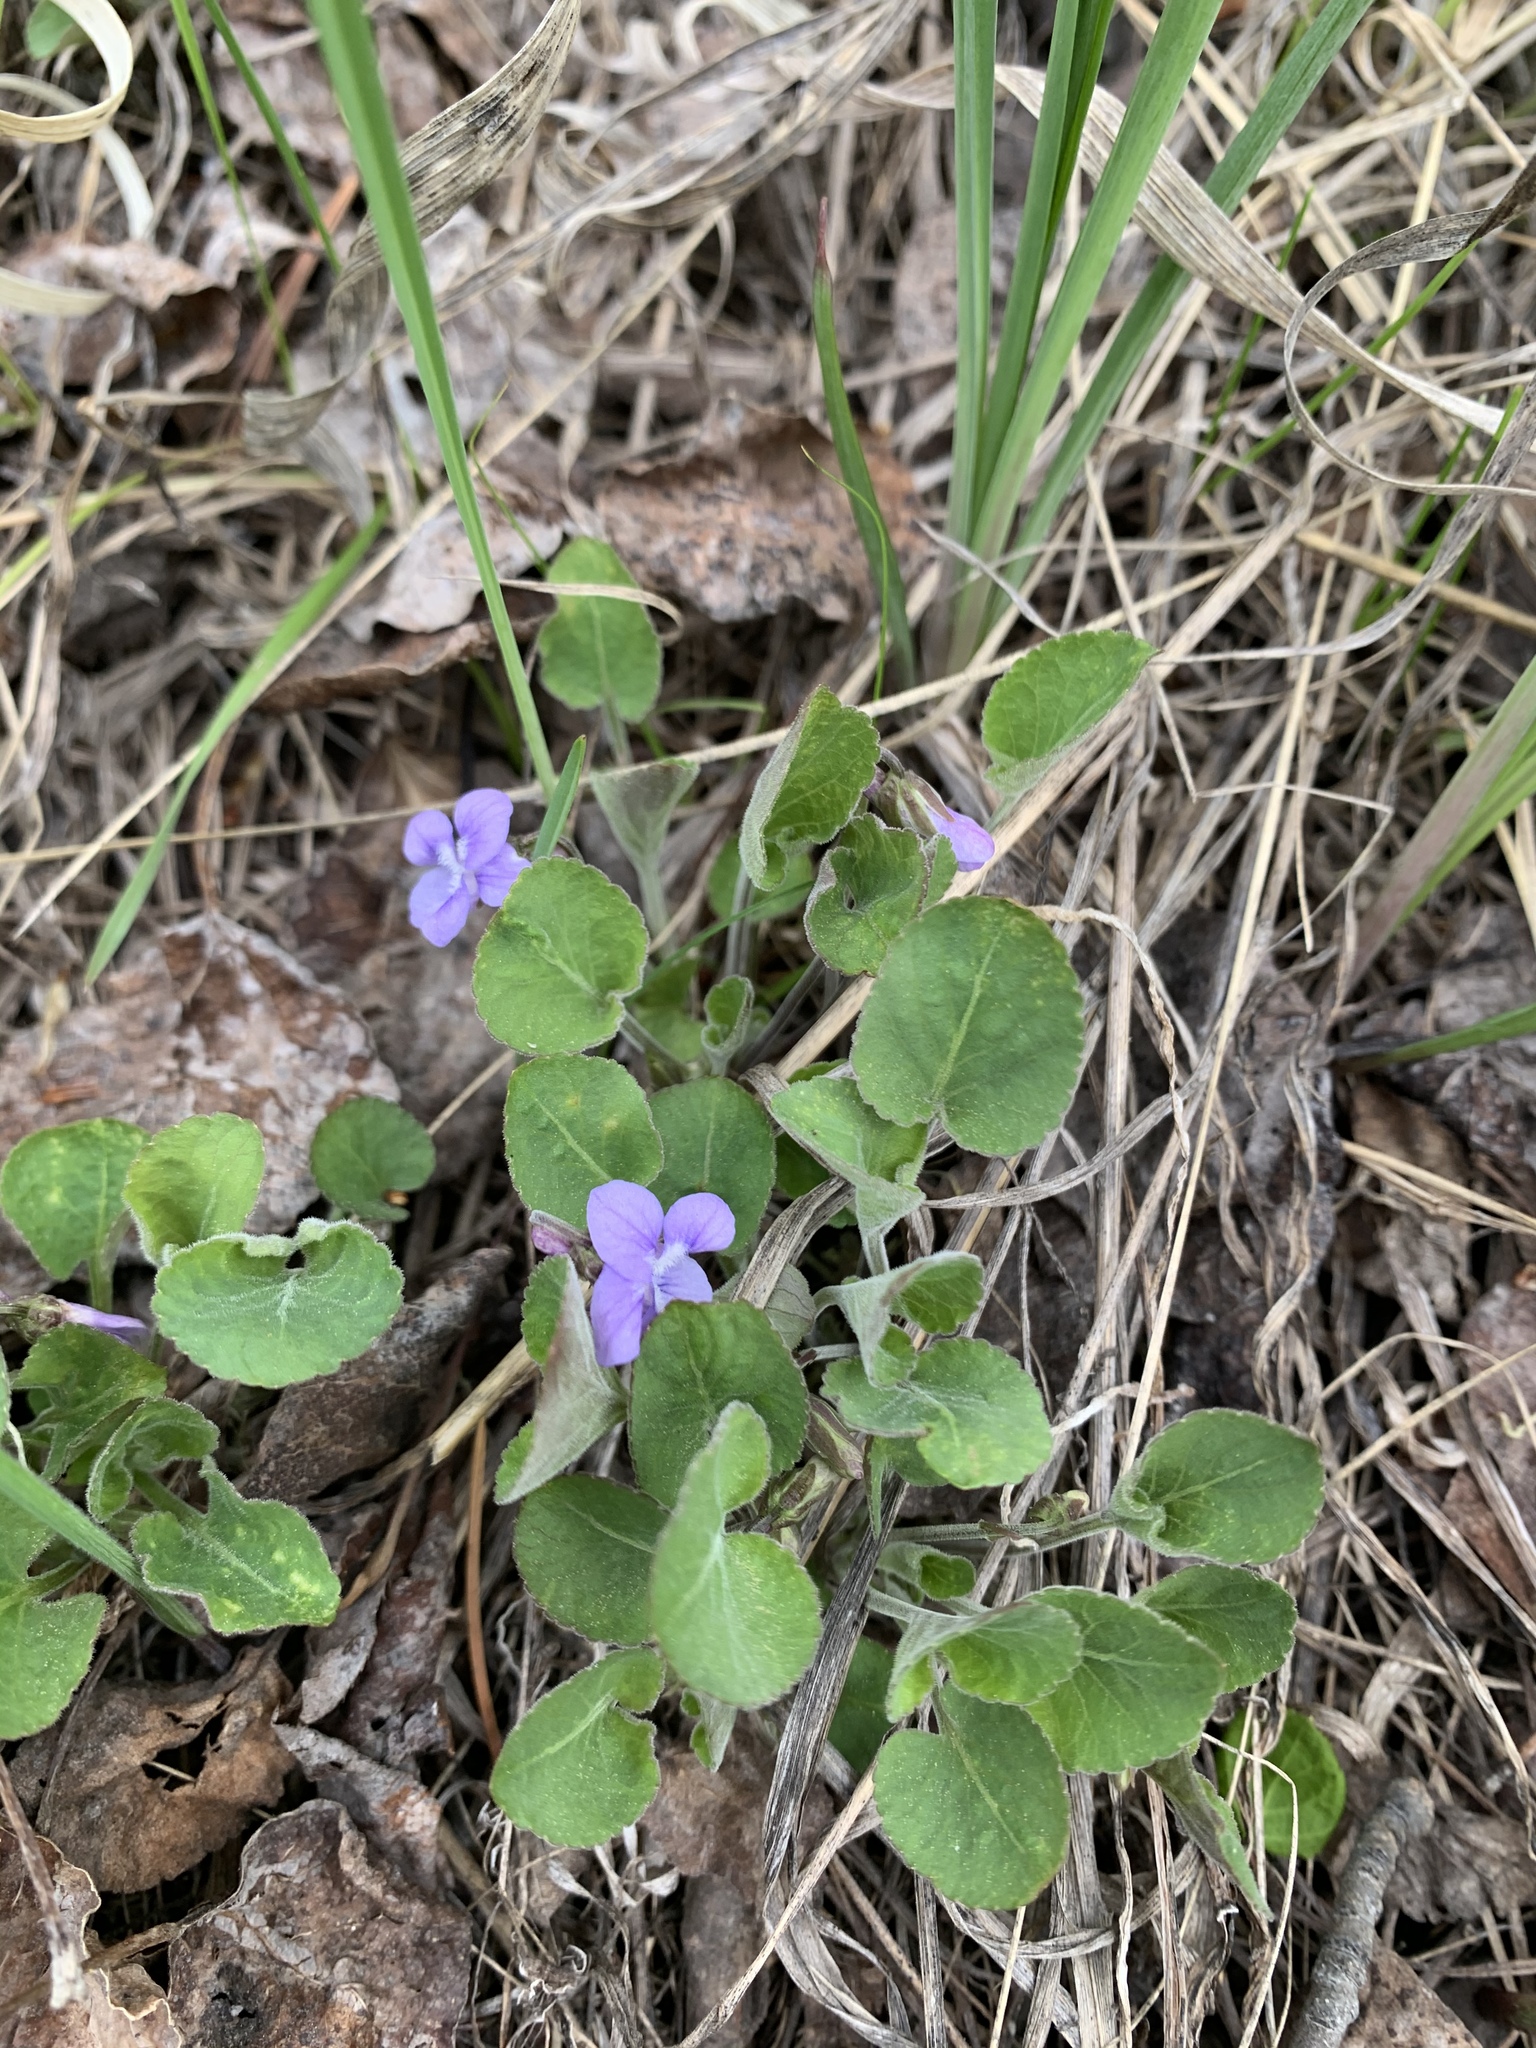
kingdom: Plantae
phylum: Tracheophyta
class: Magnoliopsida
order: Malpighiales
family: Violaceae
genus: Viola
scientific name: Viola adunca
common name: Sand violet
